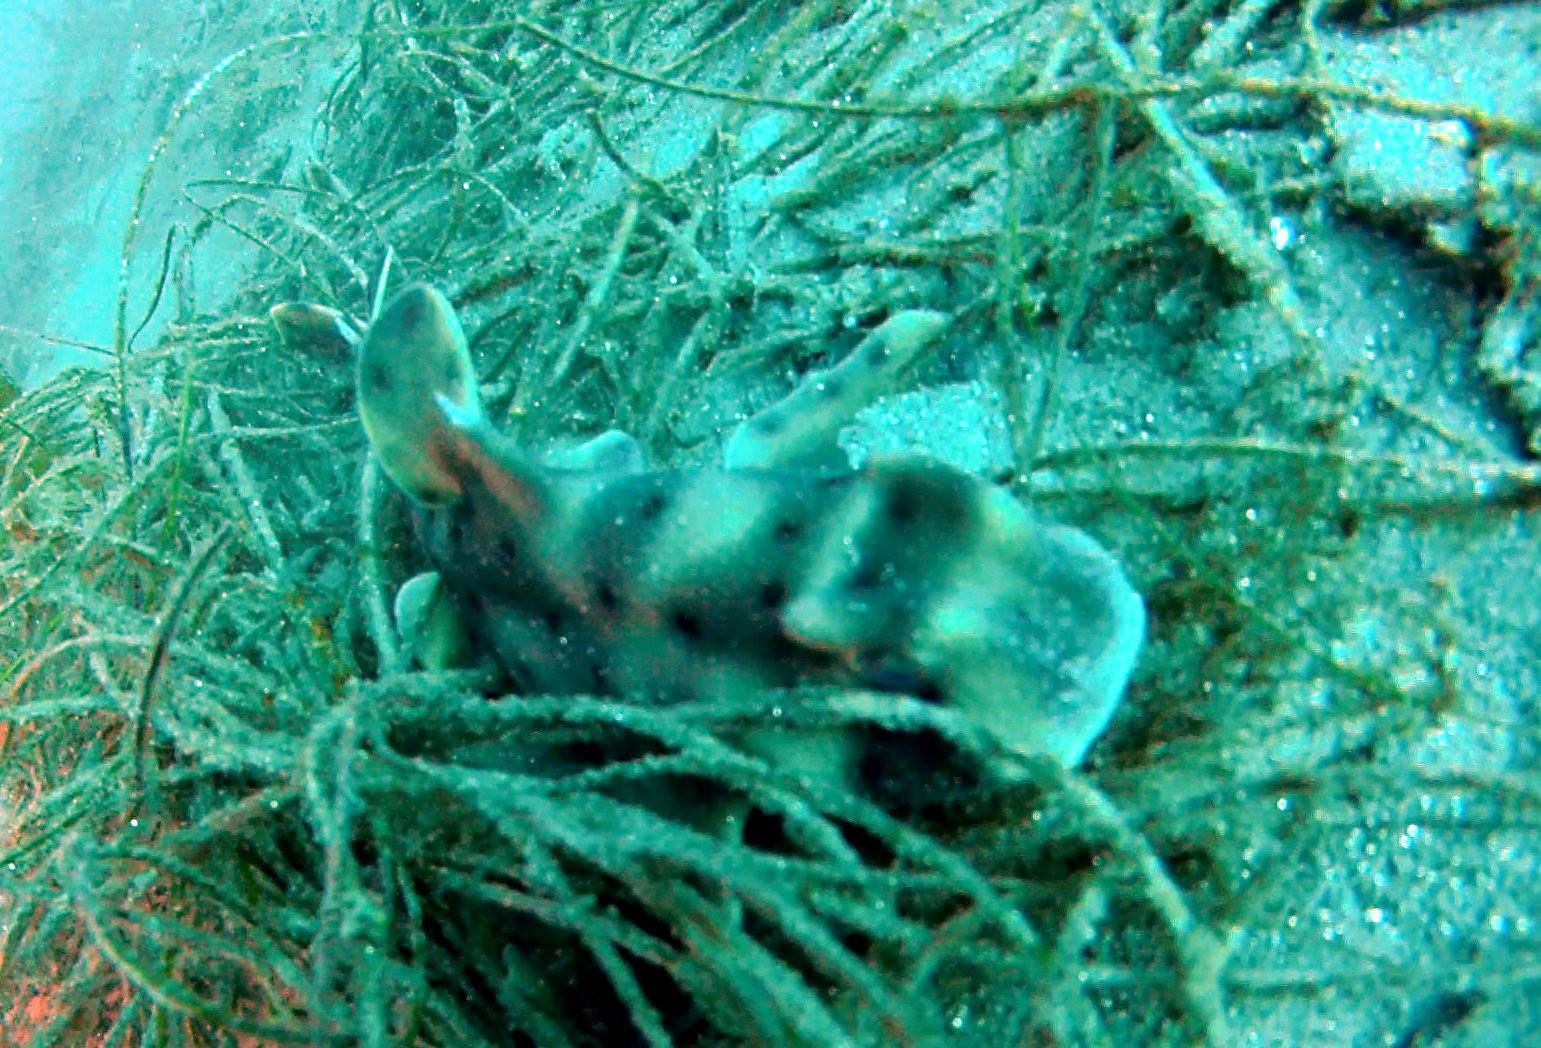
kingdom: Animalia
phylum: Chordata
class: Elasmobranchii
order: Heterodontiformes
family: Heterodontidae
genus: Heterodontus
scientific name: Heterodontus francisci
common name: Horn shark
